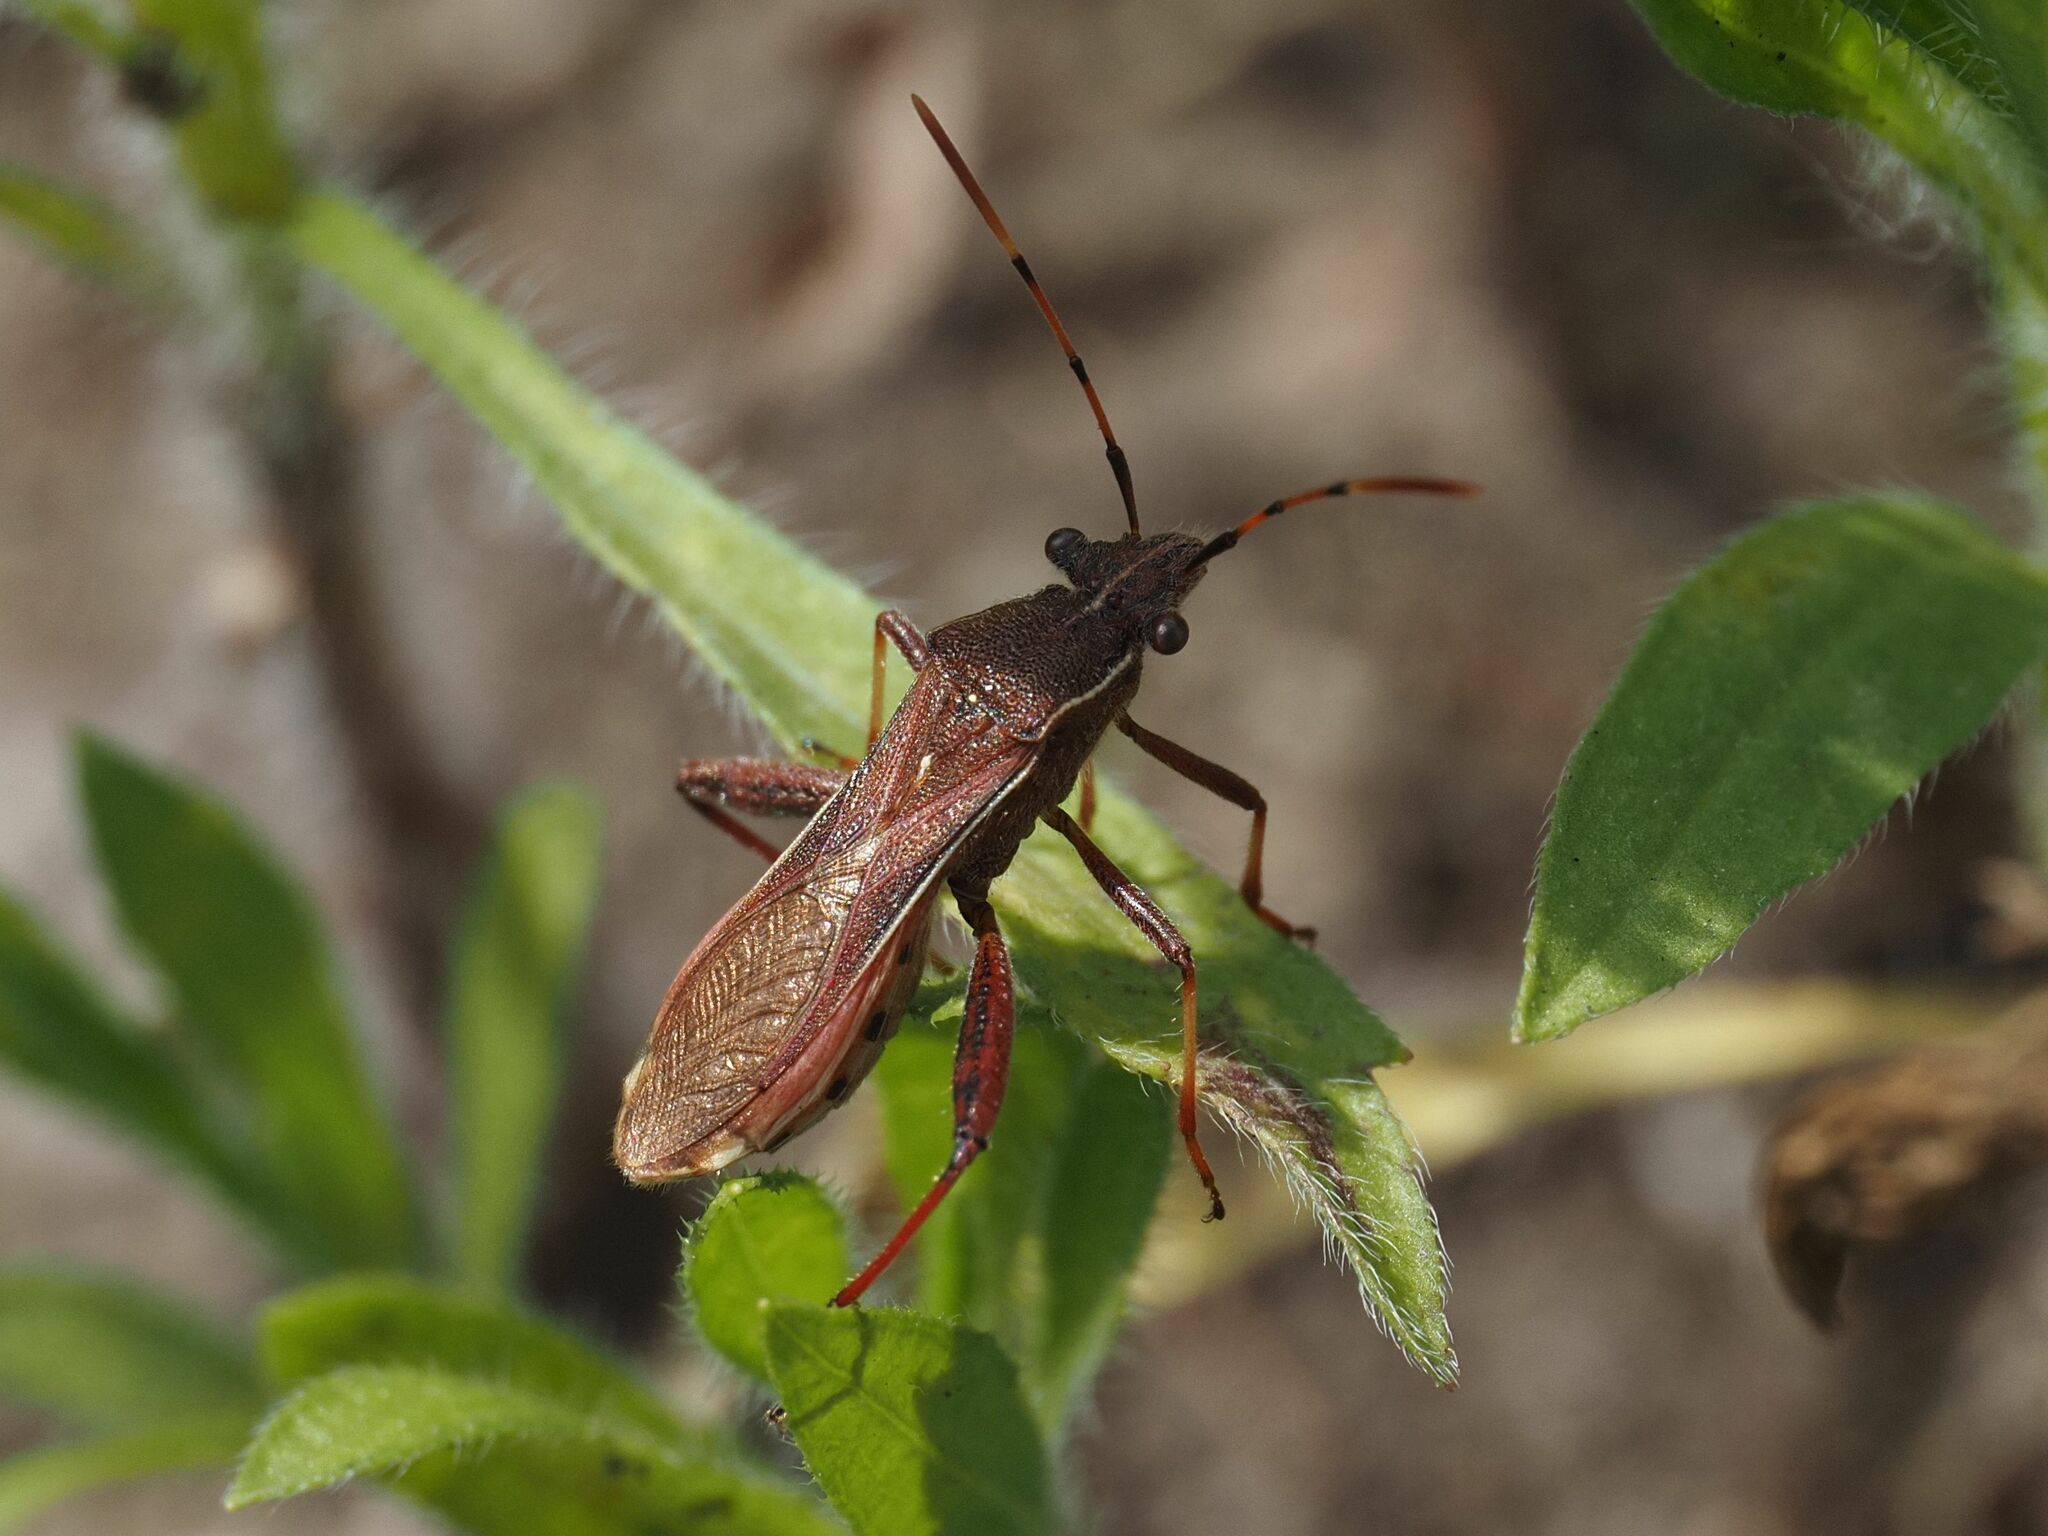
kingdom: Animalia
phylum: Arthropoda
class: Insecta
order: Hemiptera
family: Alydidae
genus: Camptopus
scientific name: Camptopus lateralis
